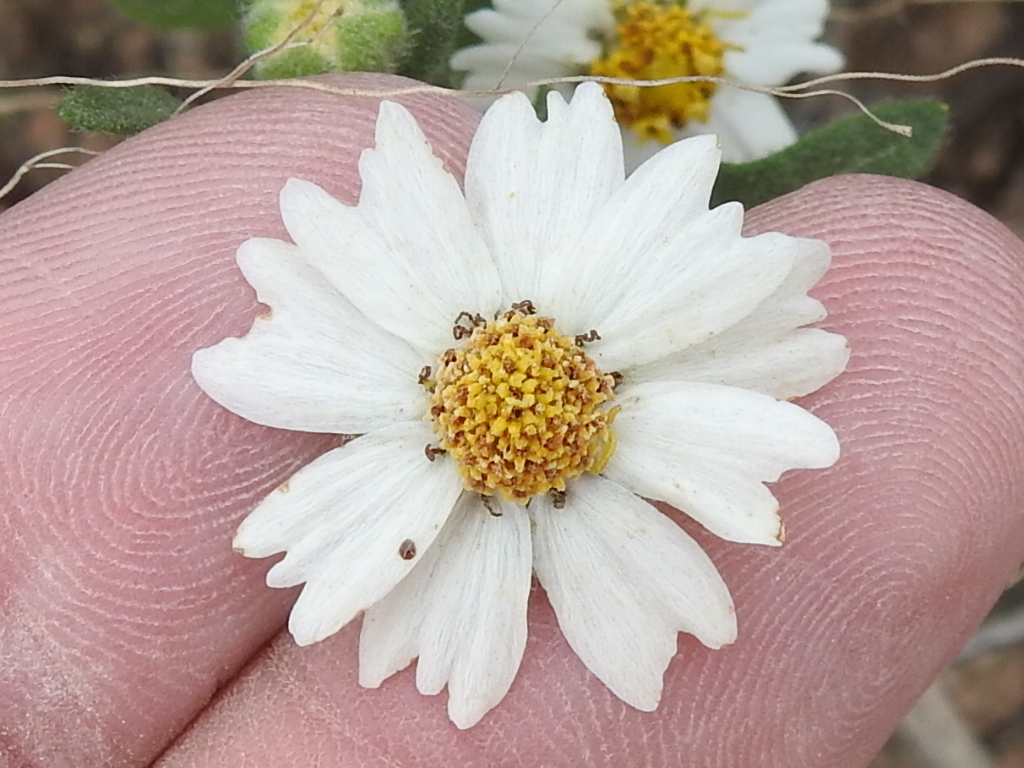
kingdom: Plantae
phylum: Tracheophyta
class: Magnoliopsida
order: Asterales
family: Asteraceae
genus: Melampodium
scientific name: Melampodium leucanthum
